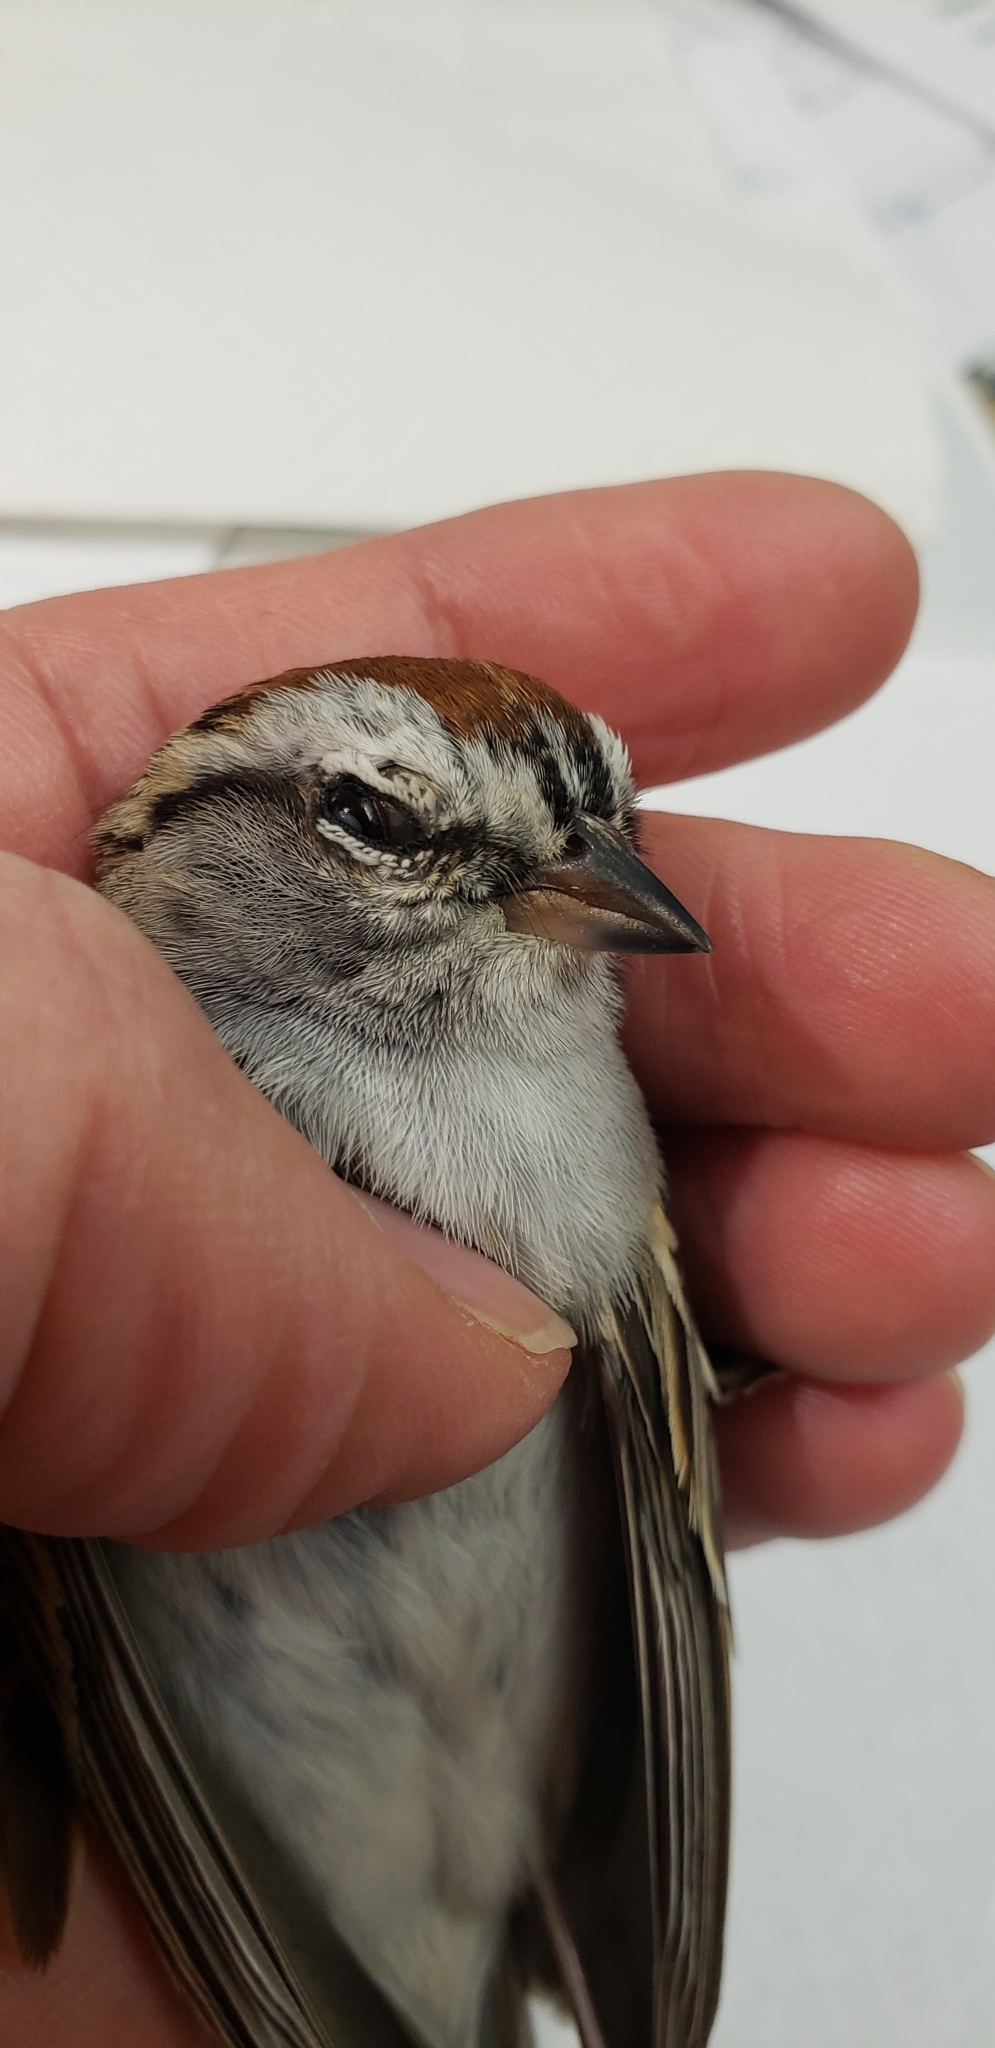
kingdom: Animalia
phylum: Chordata
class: Aves
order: Passeriformes
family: Passerellidae
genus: Spizella
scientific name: Spizella passerina
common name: Chipping sparrow
